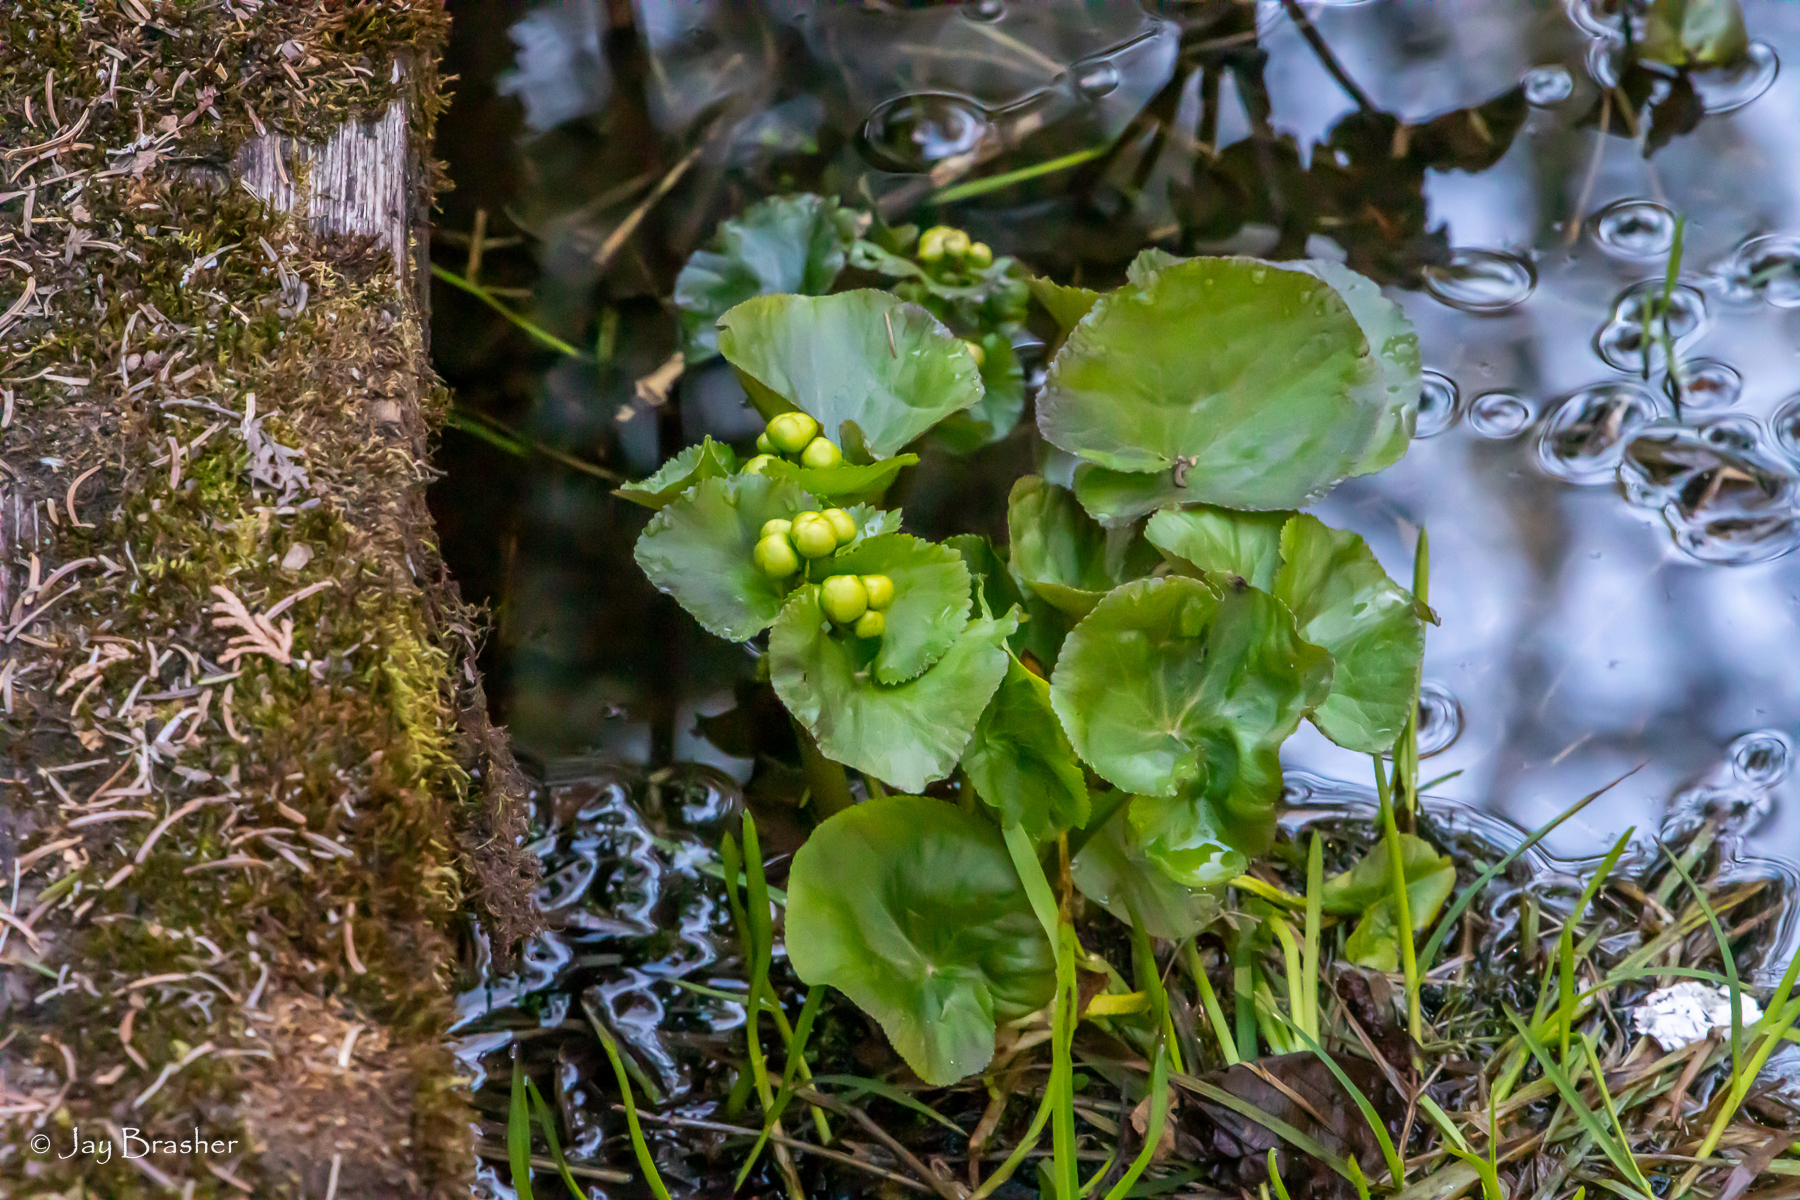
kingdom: Plantae
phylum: Tracheophyta
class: Magnoliopsida
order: Ranunculales
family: Ranunculaceae
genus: Caltha
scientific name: Caltha palustris
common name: Marsh marigold
